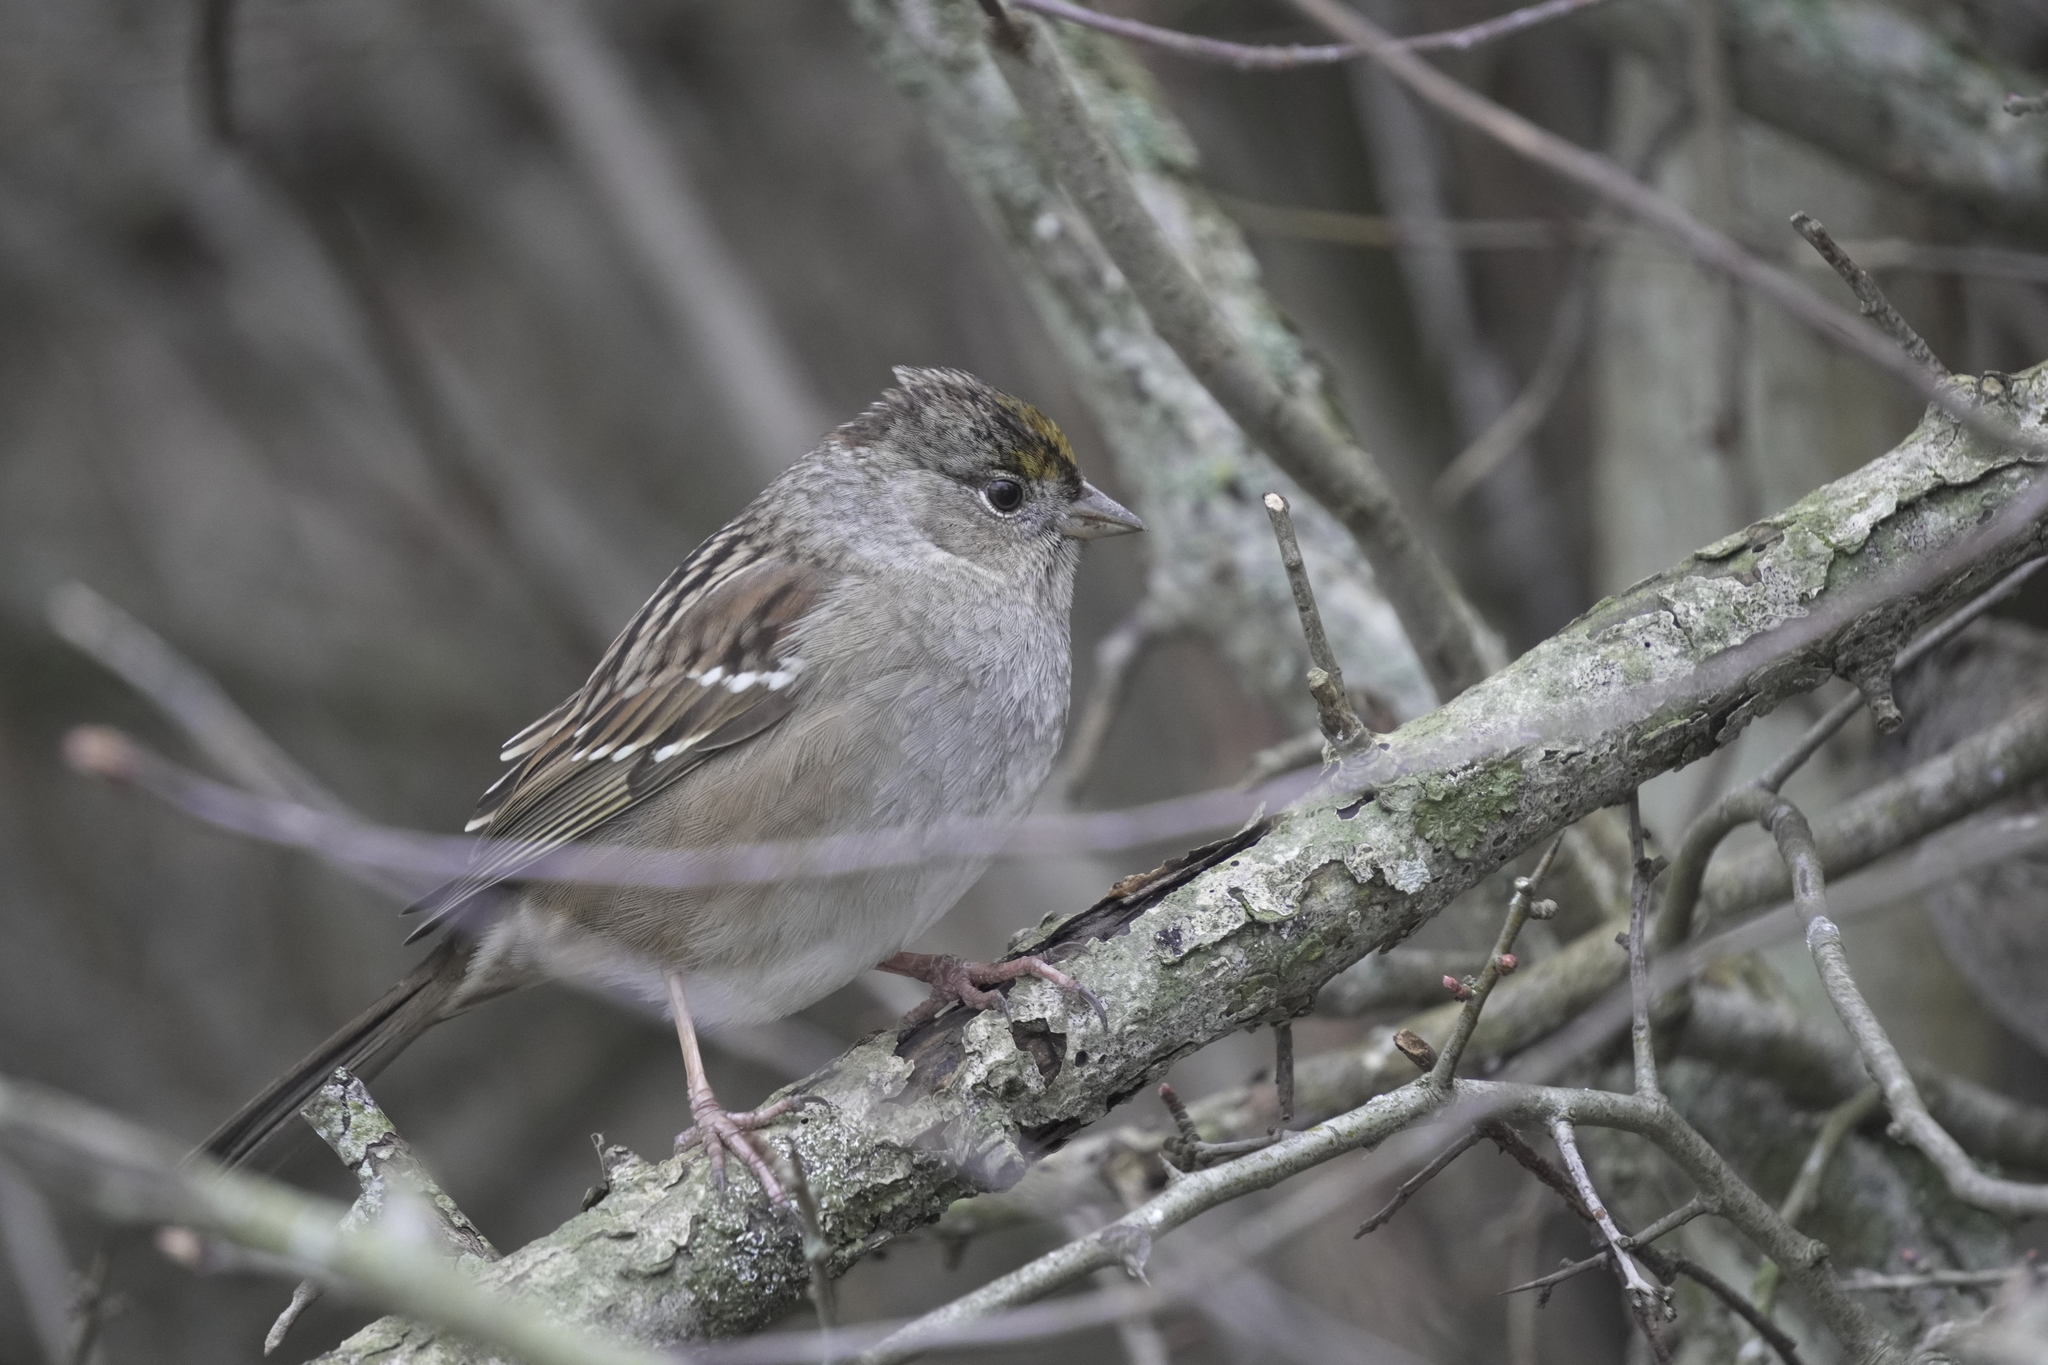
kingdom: Animalia
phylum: Chordata
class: Aves
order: Passeriformes
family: Passerellidae
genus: Zonotrichia
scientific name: Zonotrichia atricapilla
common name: Golden-crowned sparrow
